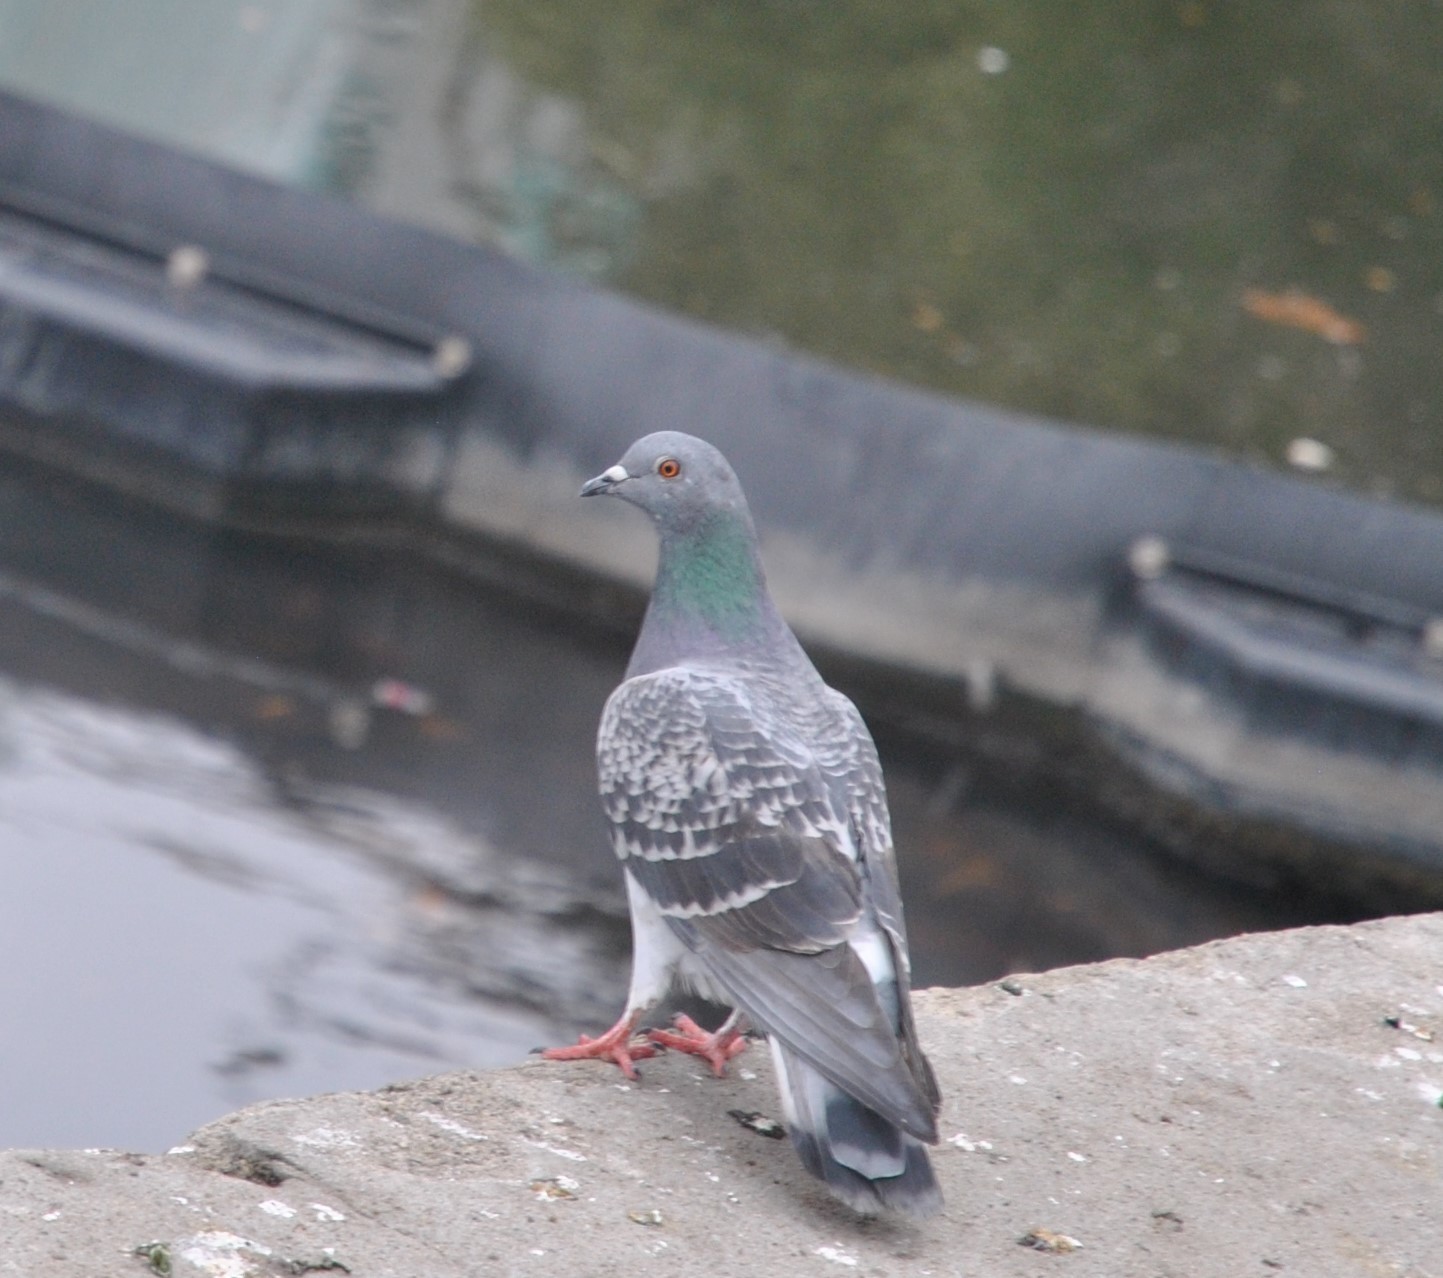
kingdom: Animalia
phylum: Chordata
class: Aves
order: Columbiformes
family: Columbidae
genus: Columba
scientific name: Columba livia
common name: Rock pigeon
